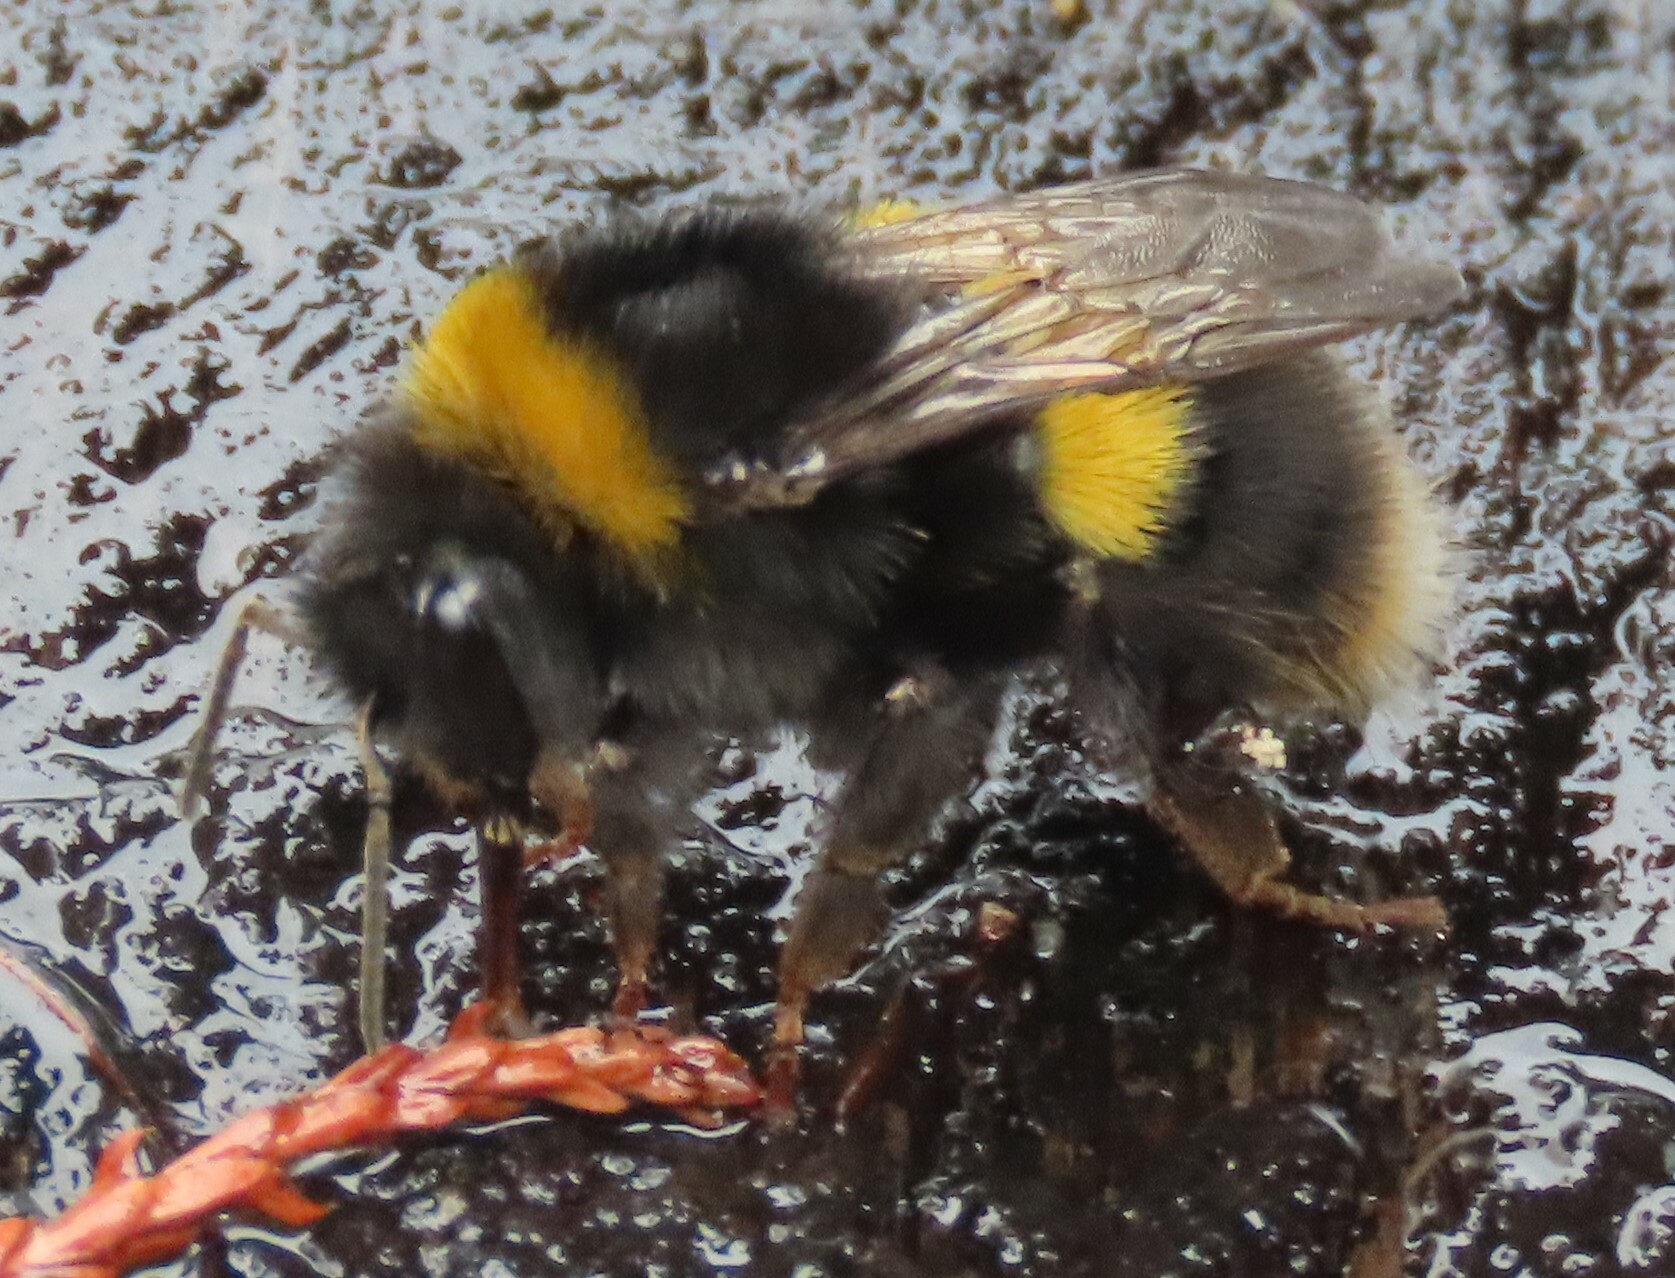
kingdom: Animalia
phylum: Arthropoda
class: Insecta
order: Hymenoptera
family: Apidae
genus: Bombus
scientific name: Bombus terrestris
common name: Buff-tailed bumblebee
